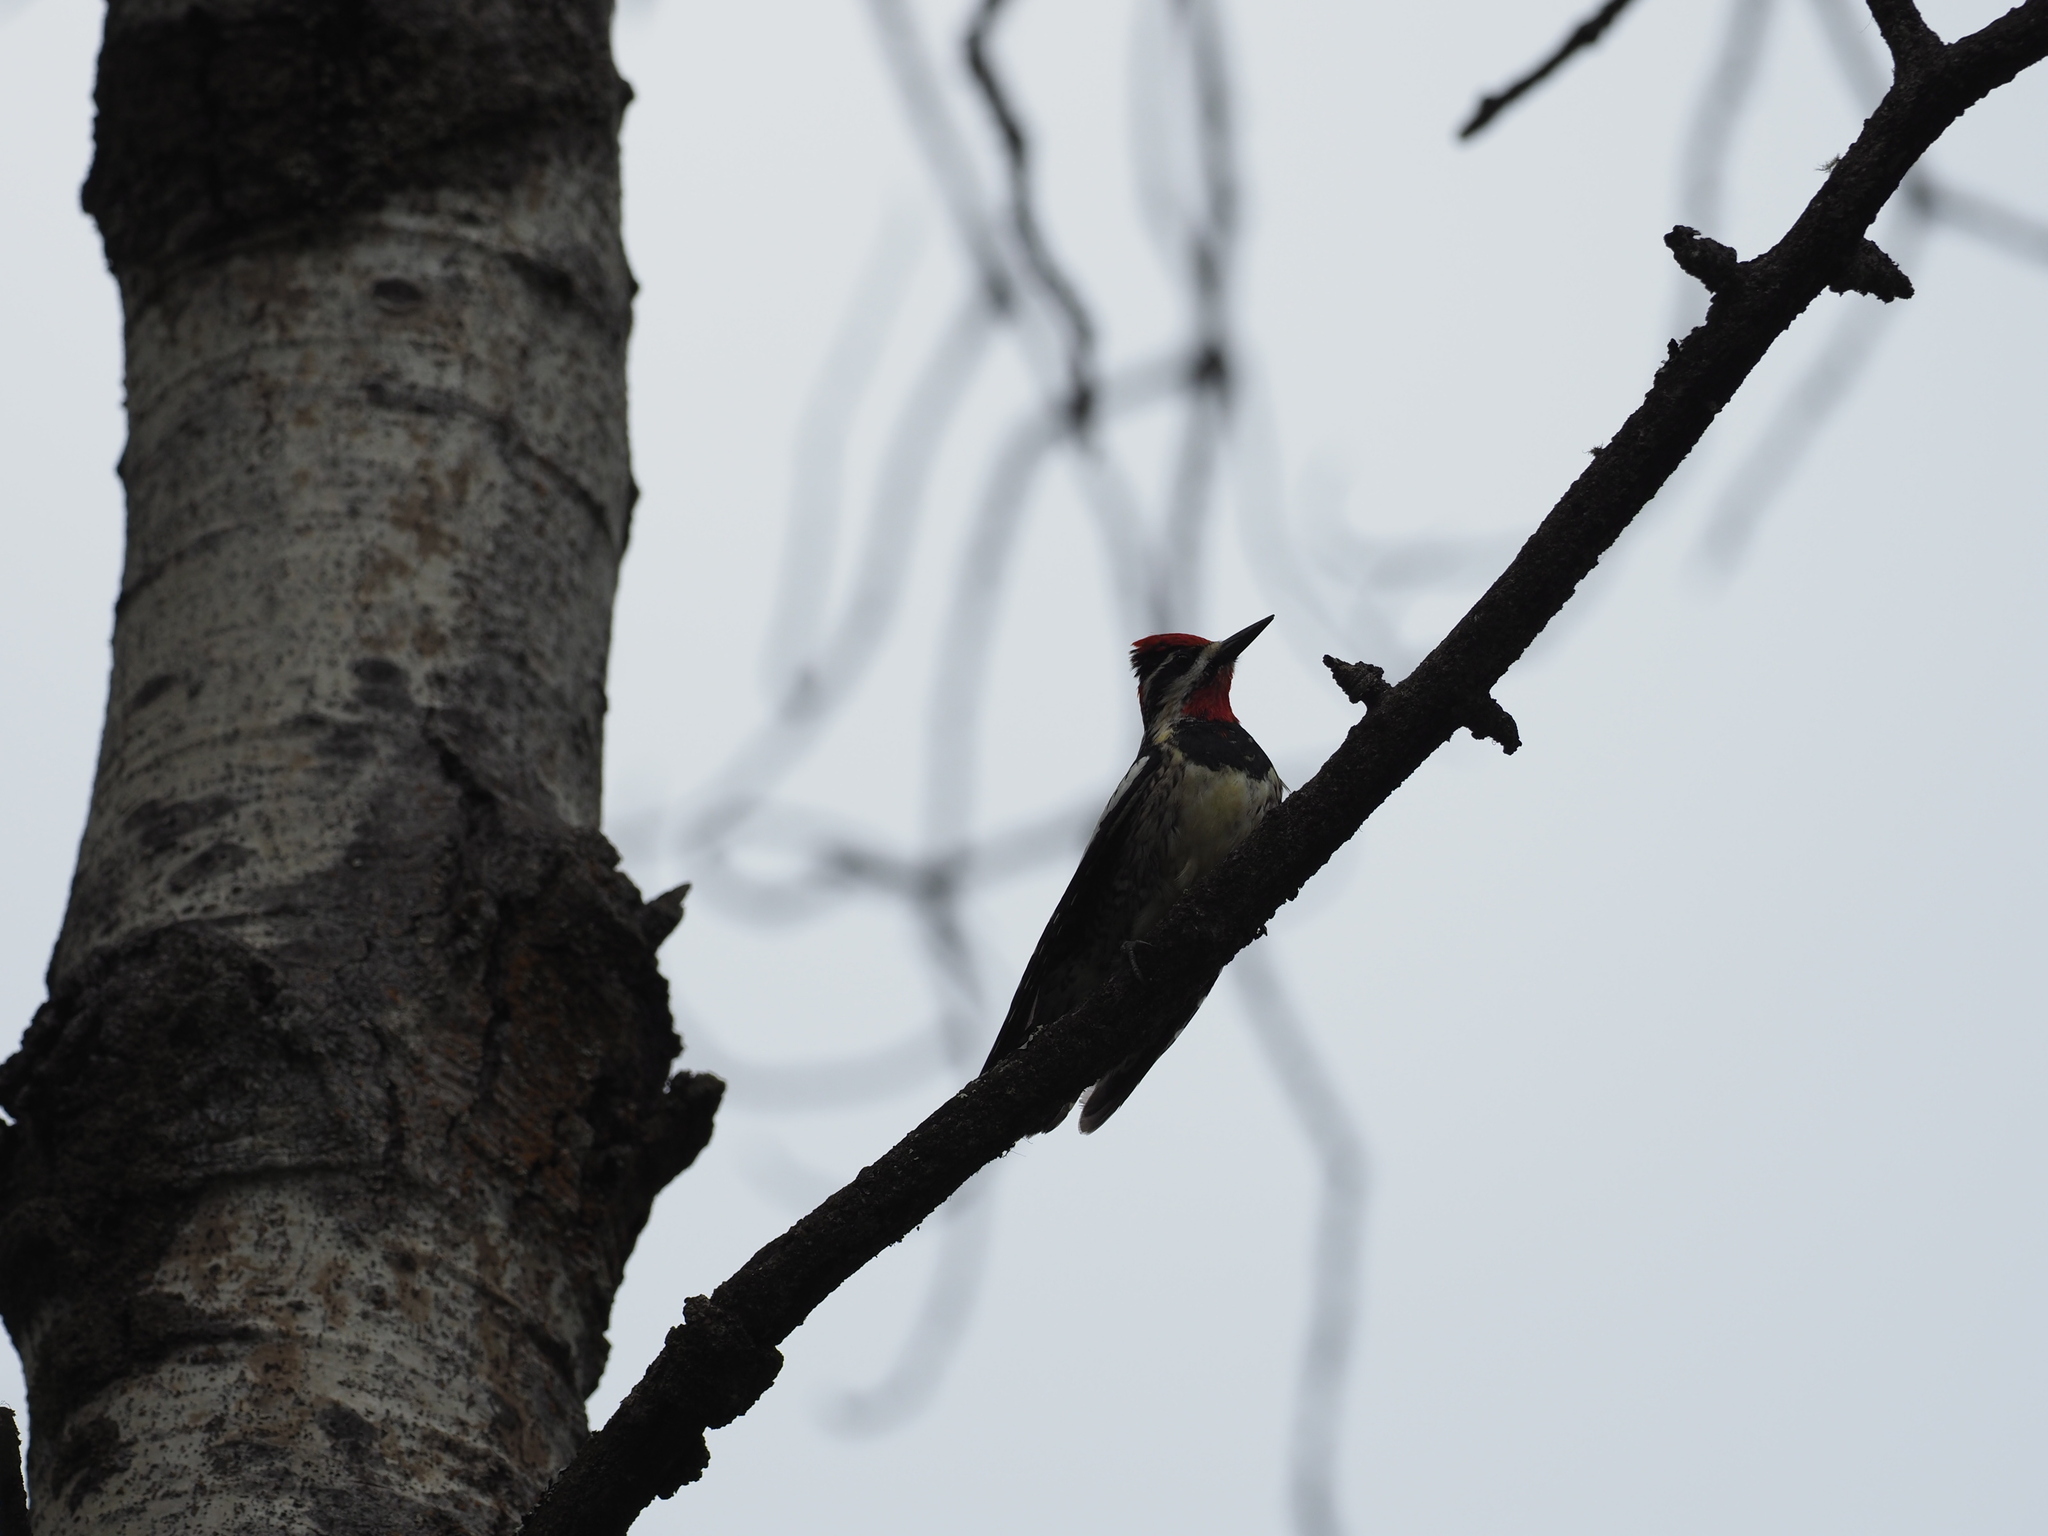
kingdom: Animalia
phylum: Chordata
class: Aves
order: Piciformes
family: Picidae
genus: Sphyrapicus
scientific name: Sphyrapicus nuchalis
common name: Red-naped sapsucker
